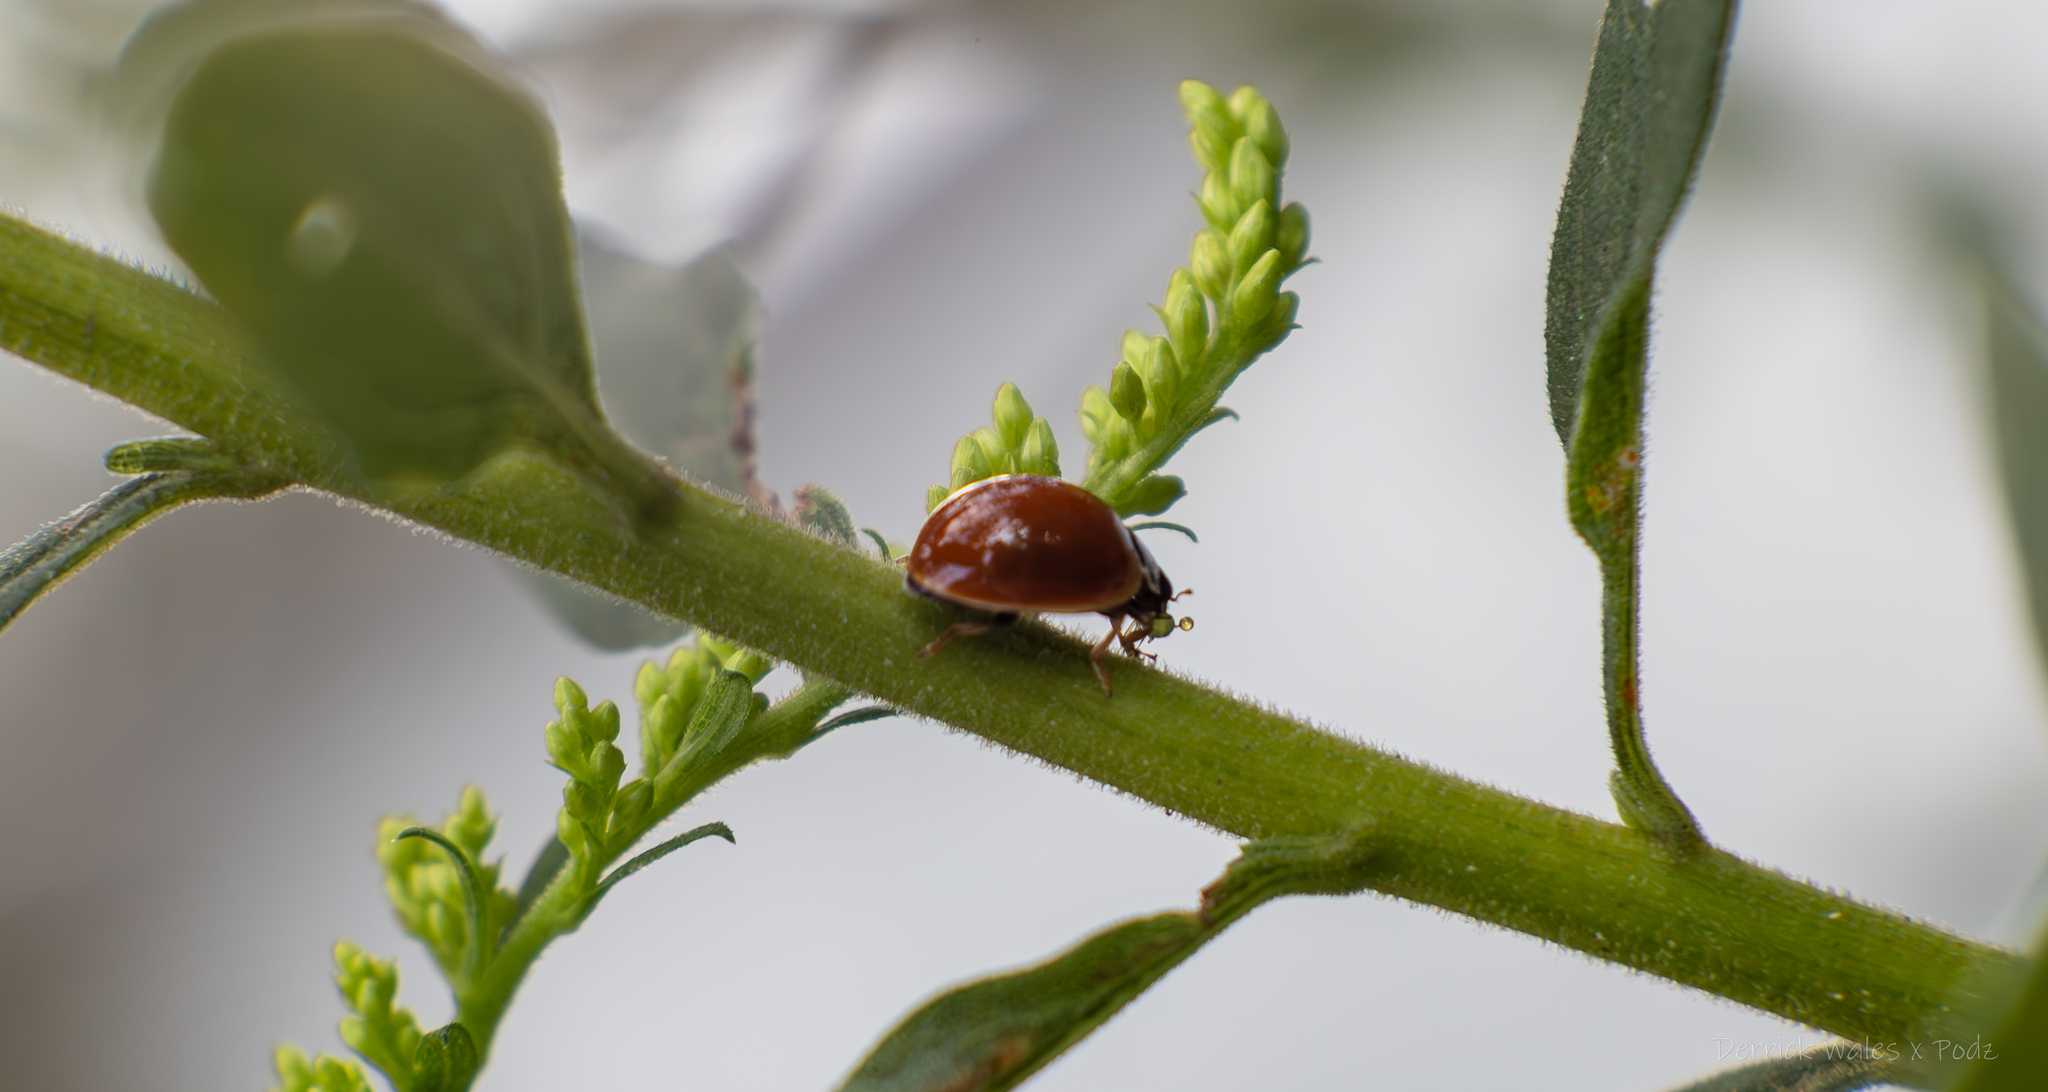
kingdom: Animalia
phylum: Arthropoda
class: Insecta
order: Coleoptera
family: Coccinellidae
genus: Cycloneda
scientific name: Cycloneda munda
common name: Polished lady beetle
